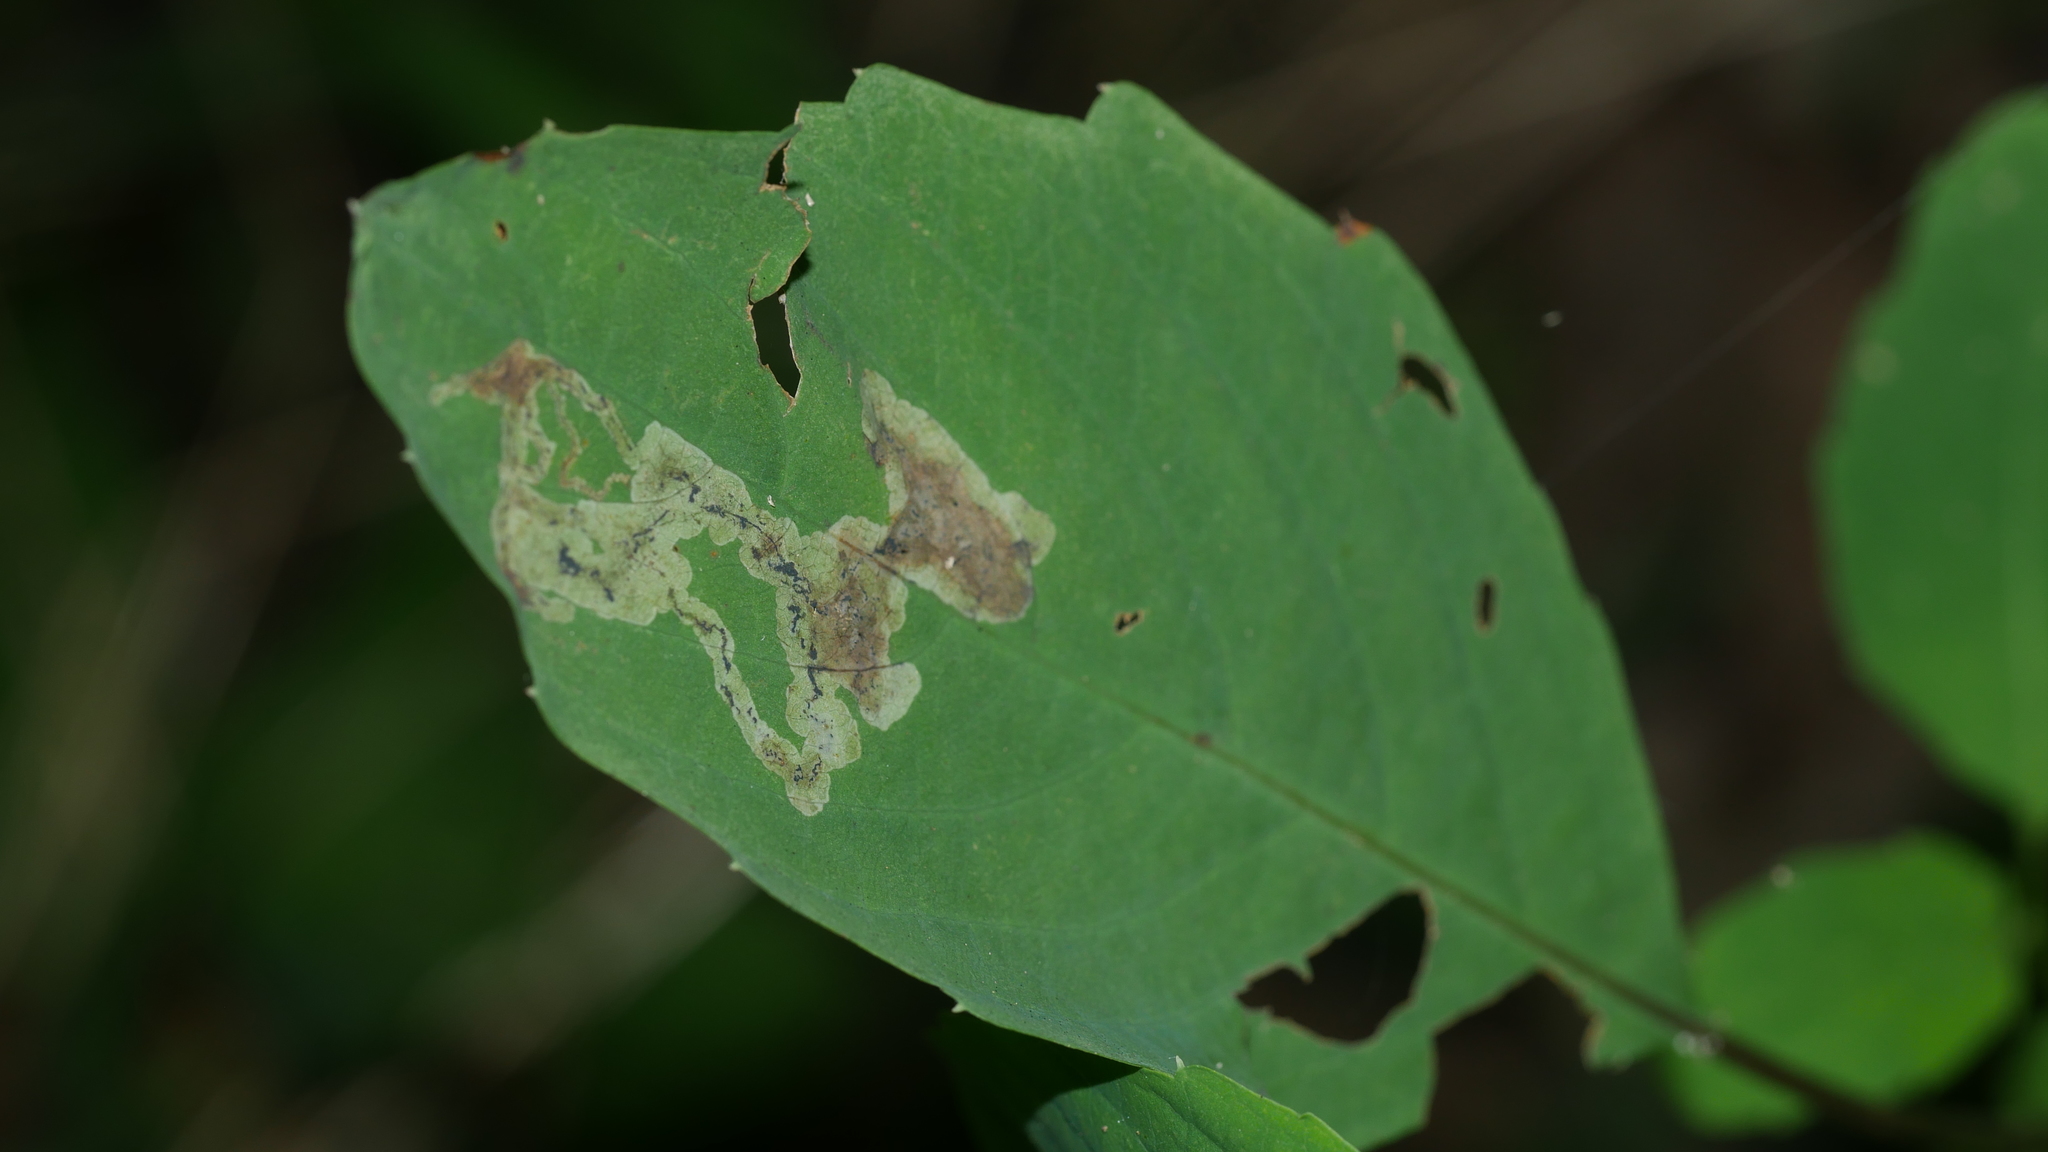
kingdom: Animalia
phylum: Arthropoda
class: Insecta
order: Diptera
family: Agromyzidae
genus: Phytoliriomyza
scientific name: Phytoliriomyza melampyga
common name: Jewelweed leaf-miner fly
